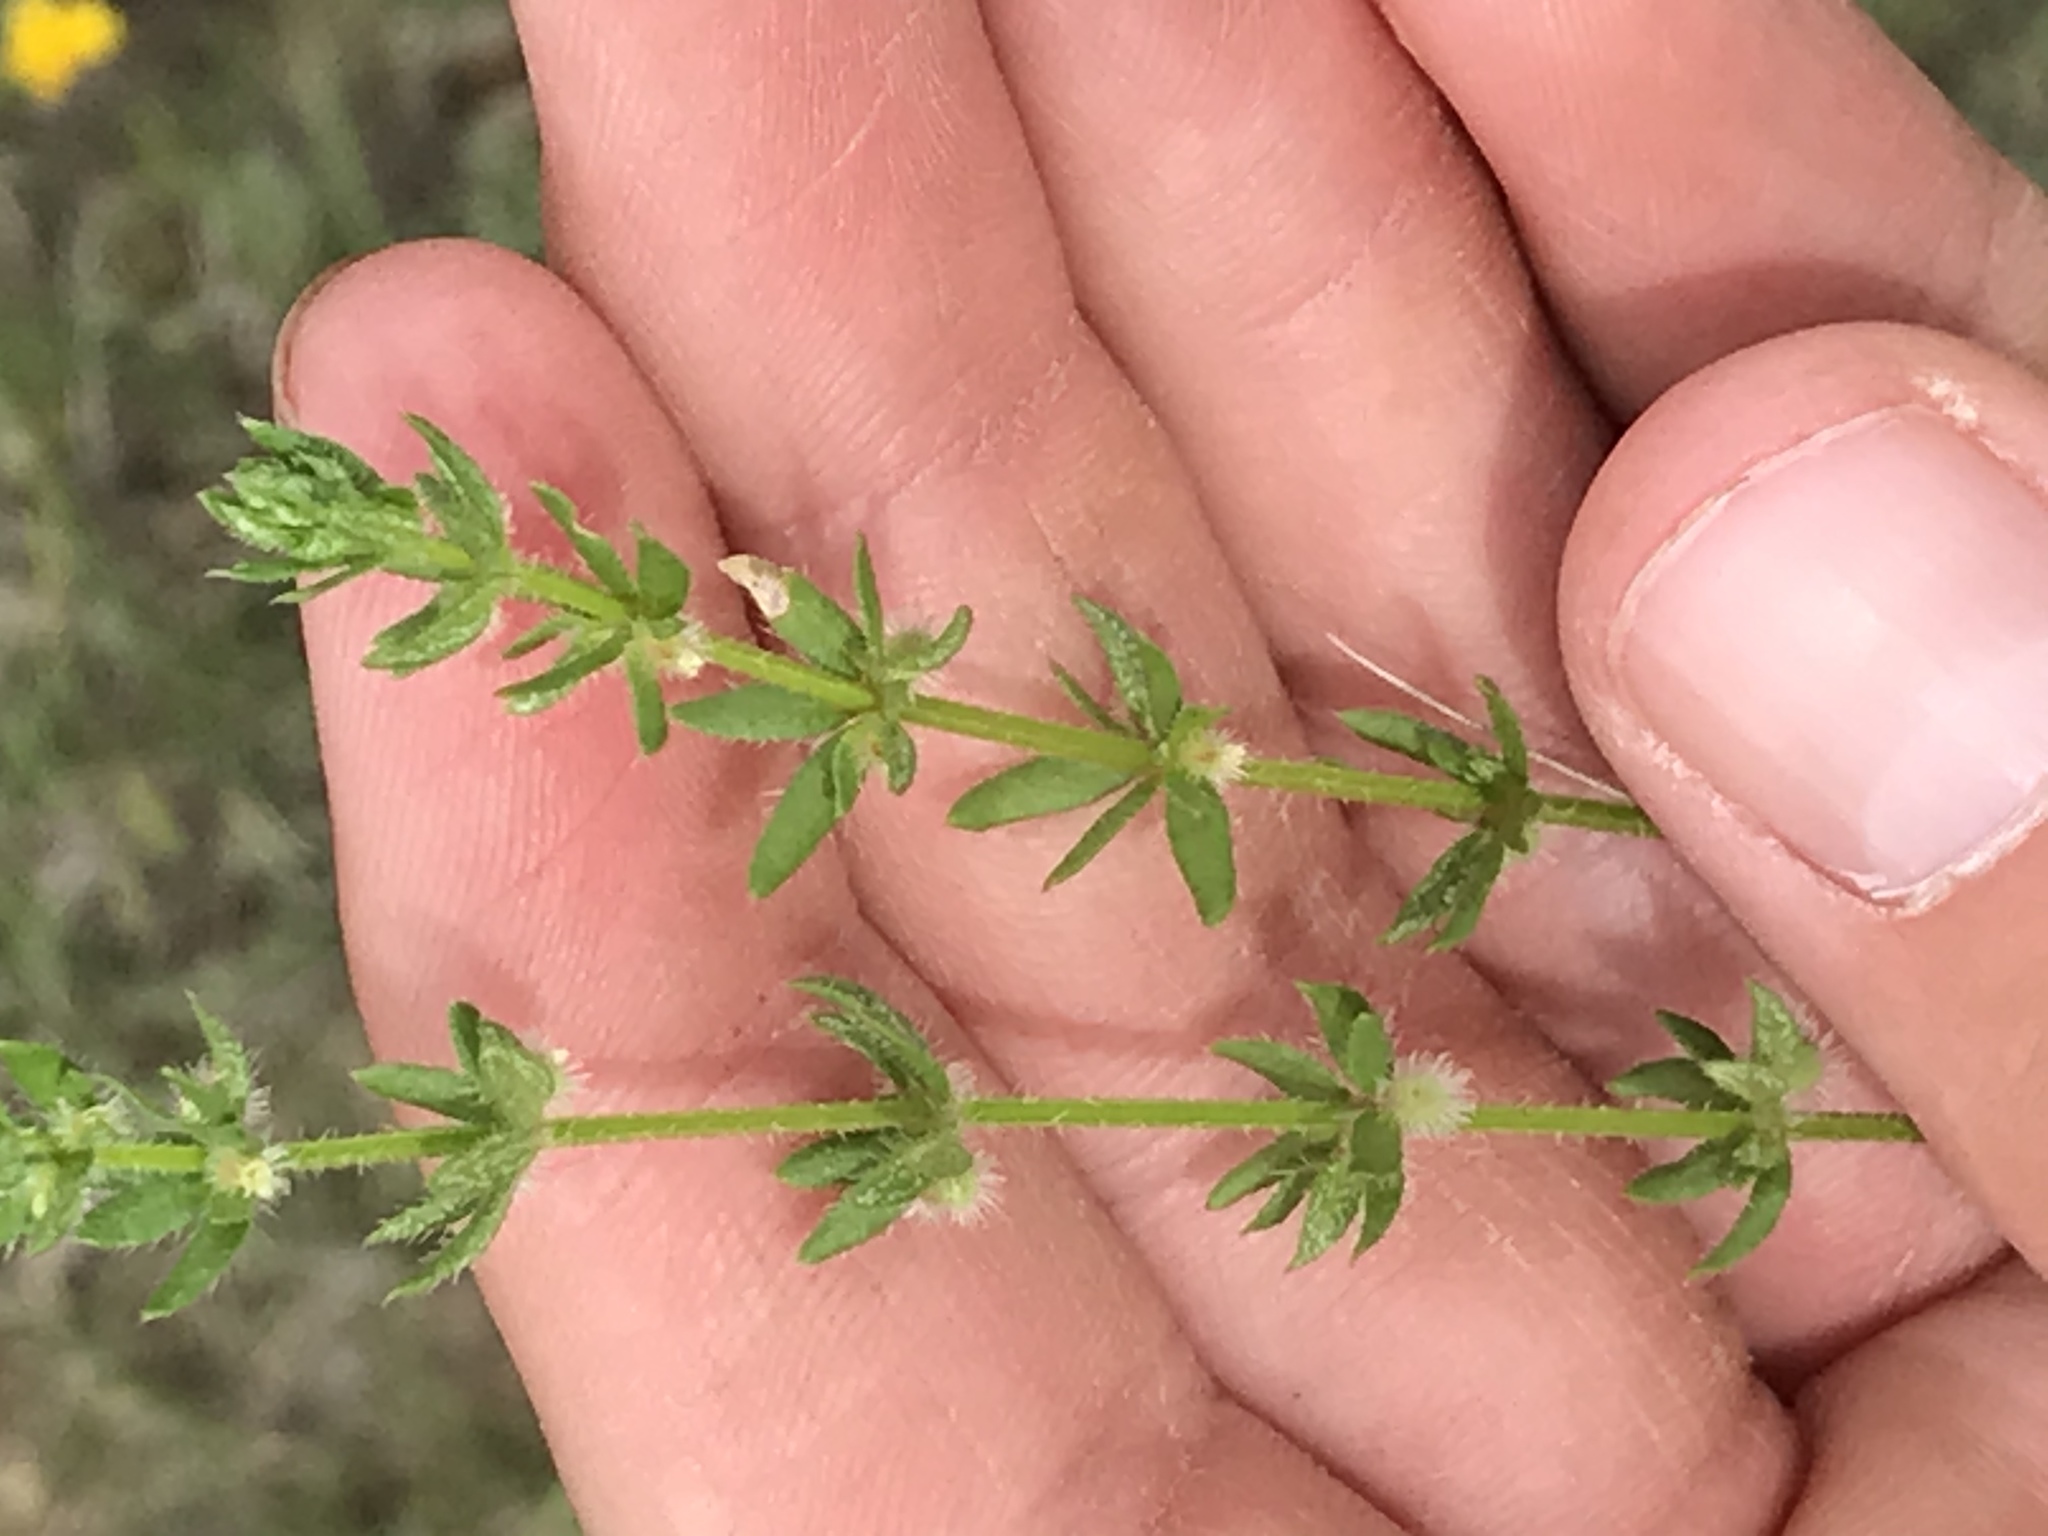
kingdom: Plantae
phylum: Tracheophyta
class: Magnoliopsida
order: Gentianales
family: Rubiaceae
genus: Galium
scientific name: Galium virgatum
